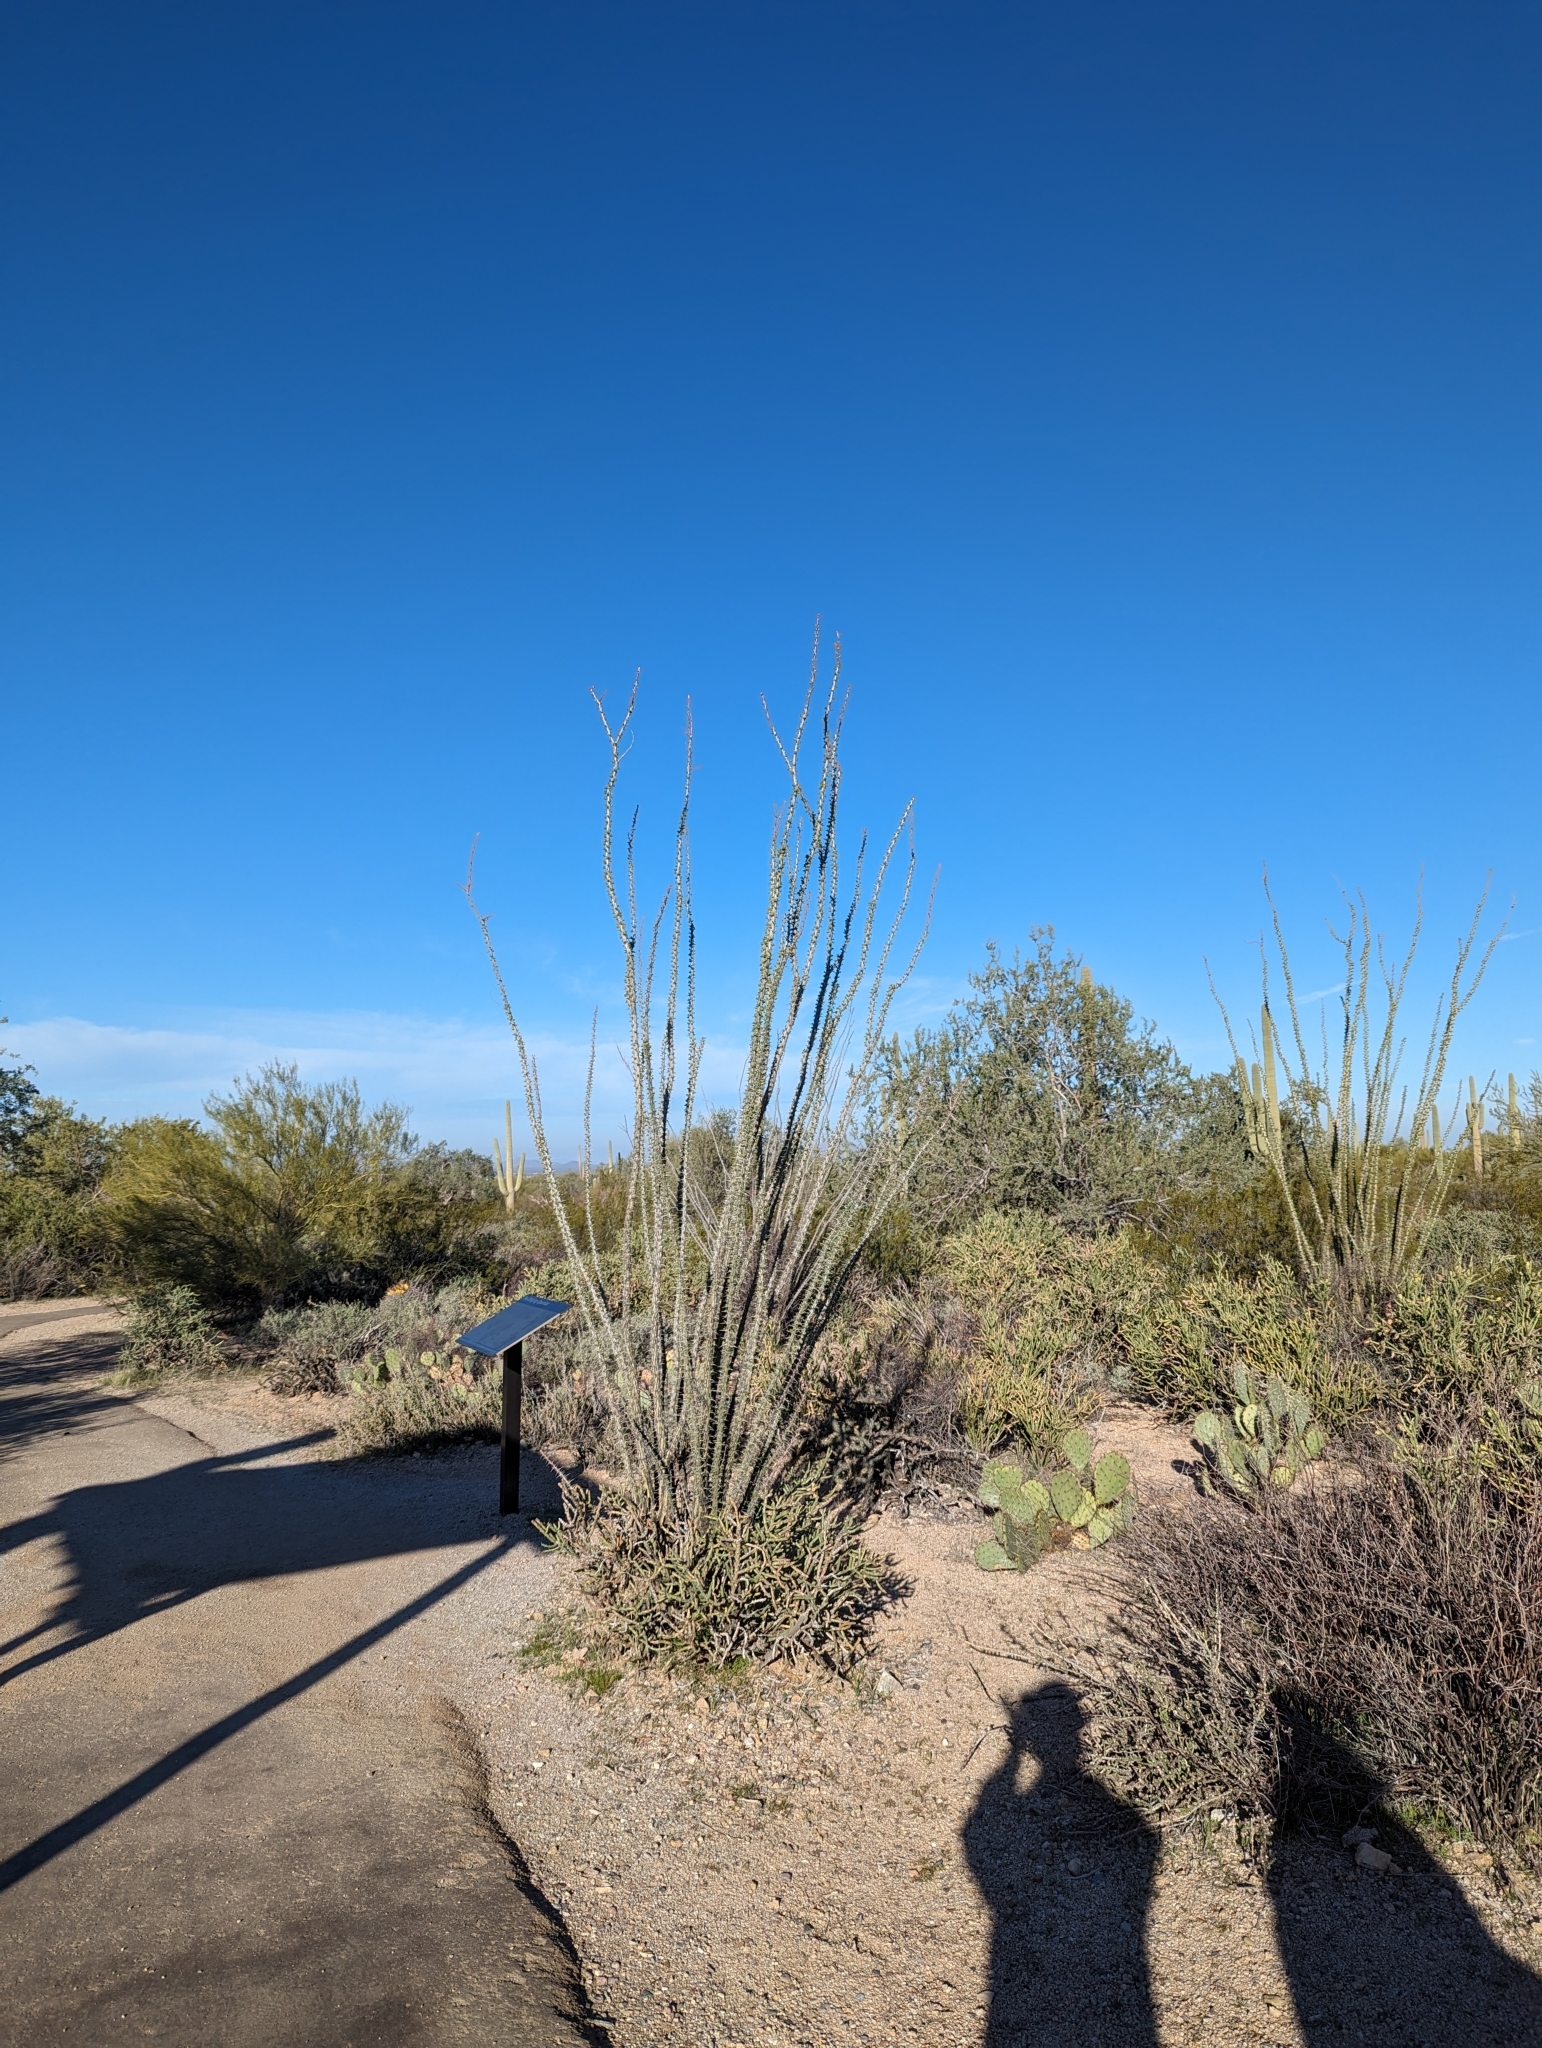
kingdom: Plantae
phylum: Tracheophyta
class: Magnoliopsida
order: Ericales
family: Fouquieriaceae
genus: Fouquieria
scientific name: Fouquieria splendens
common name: Vine-cactus
